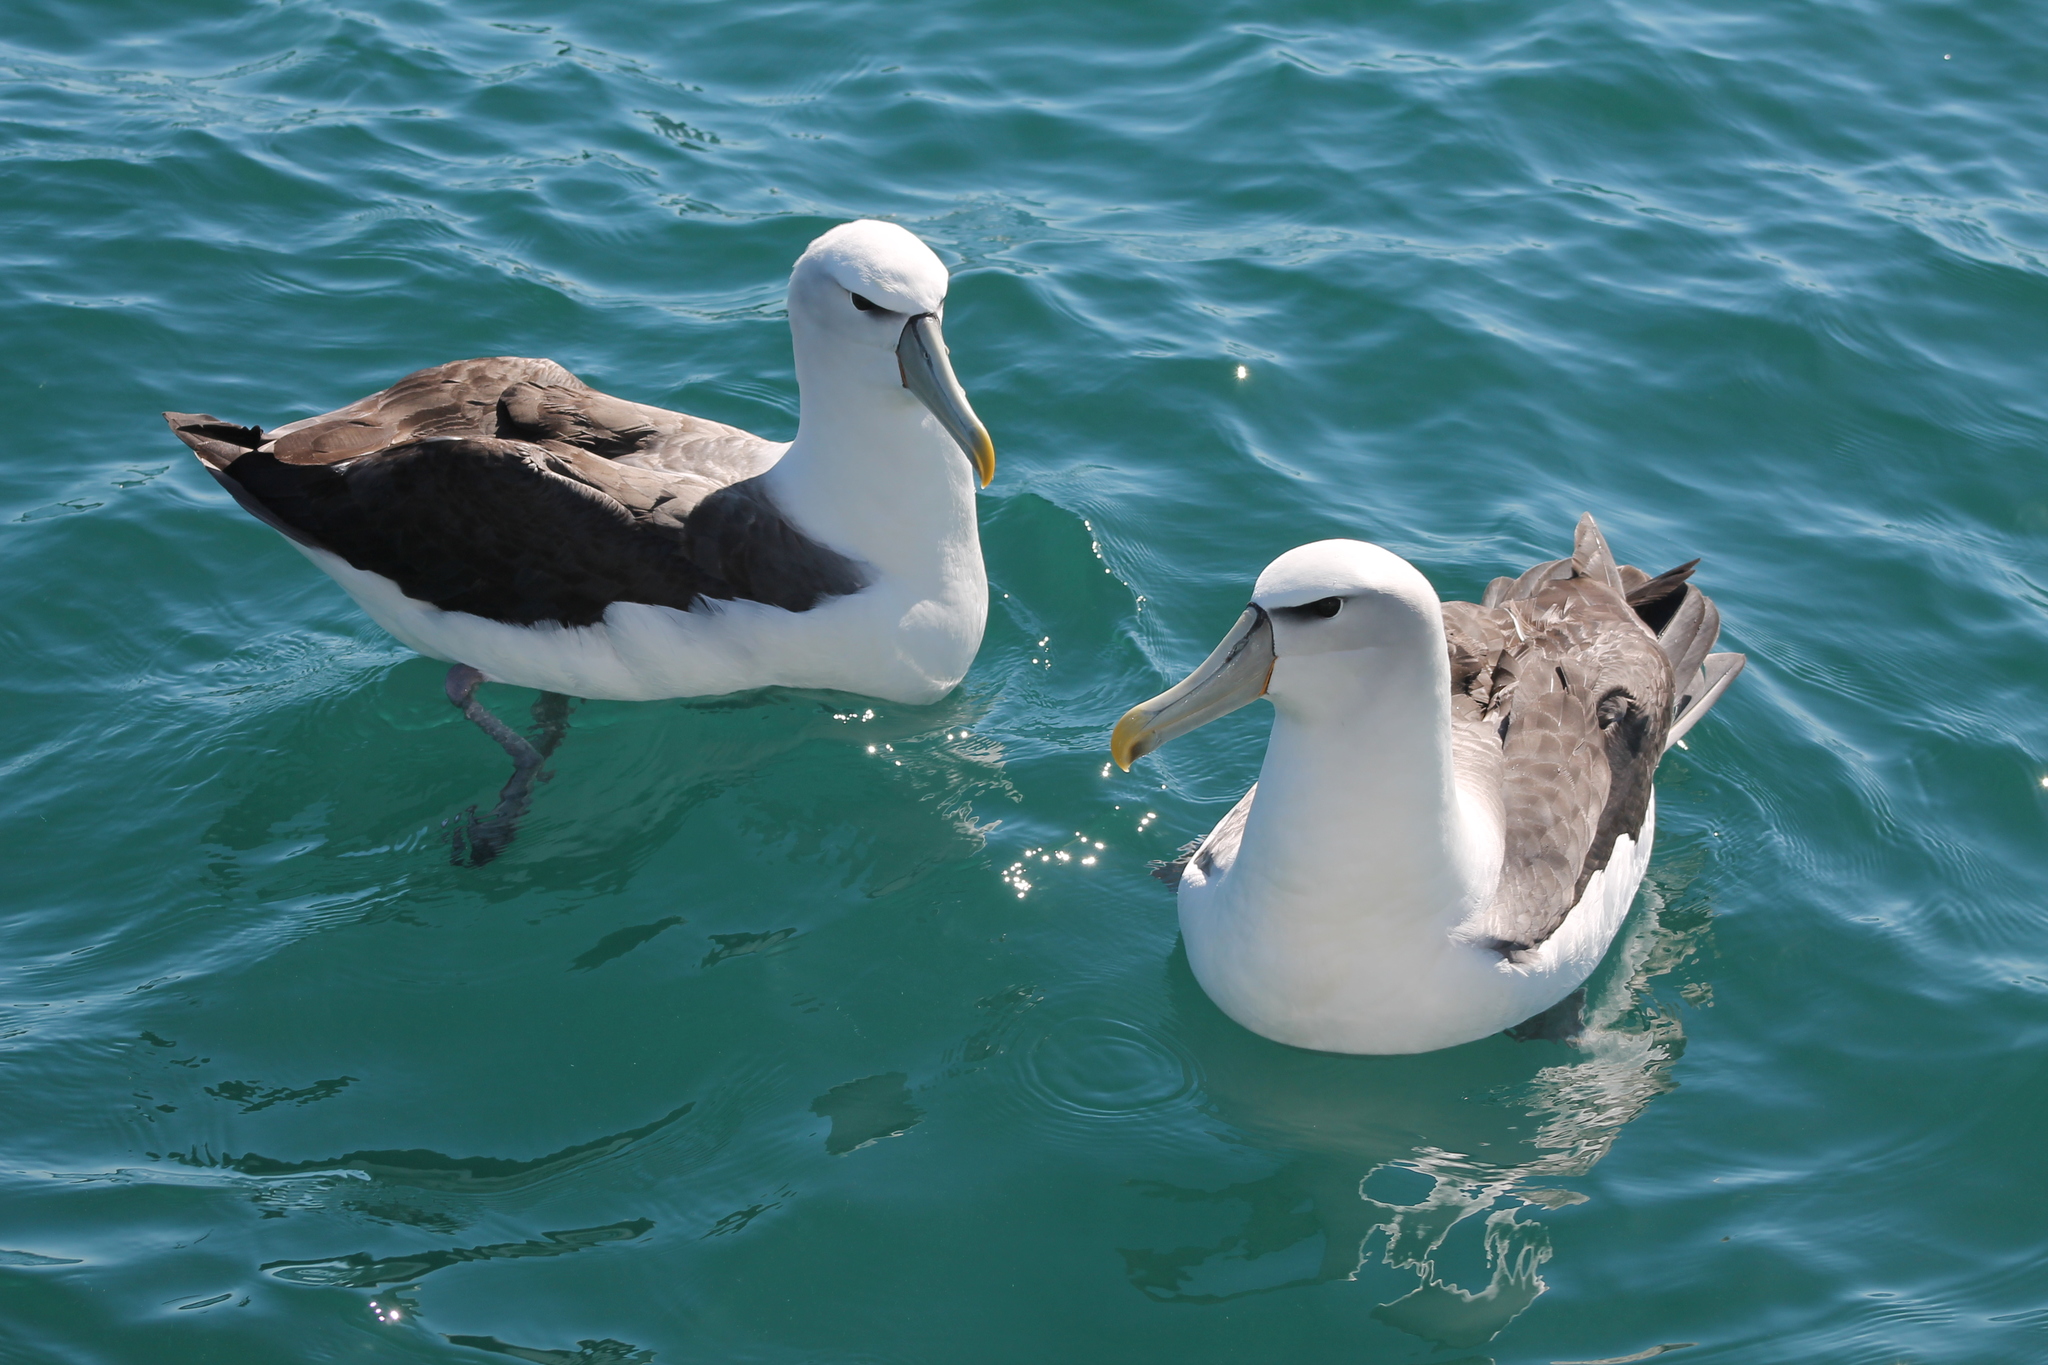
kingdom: Animalia
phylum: Chordata
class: Aves
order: Procellariiformes
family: Diomedeidae
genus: Thalassarche
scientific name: Thalassarche cauta
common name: Shy albatross
